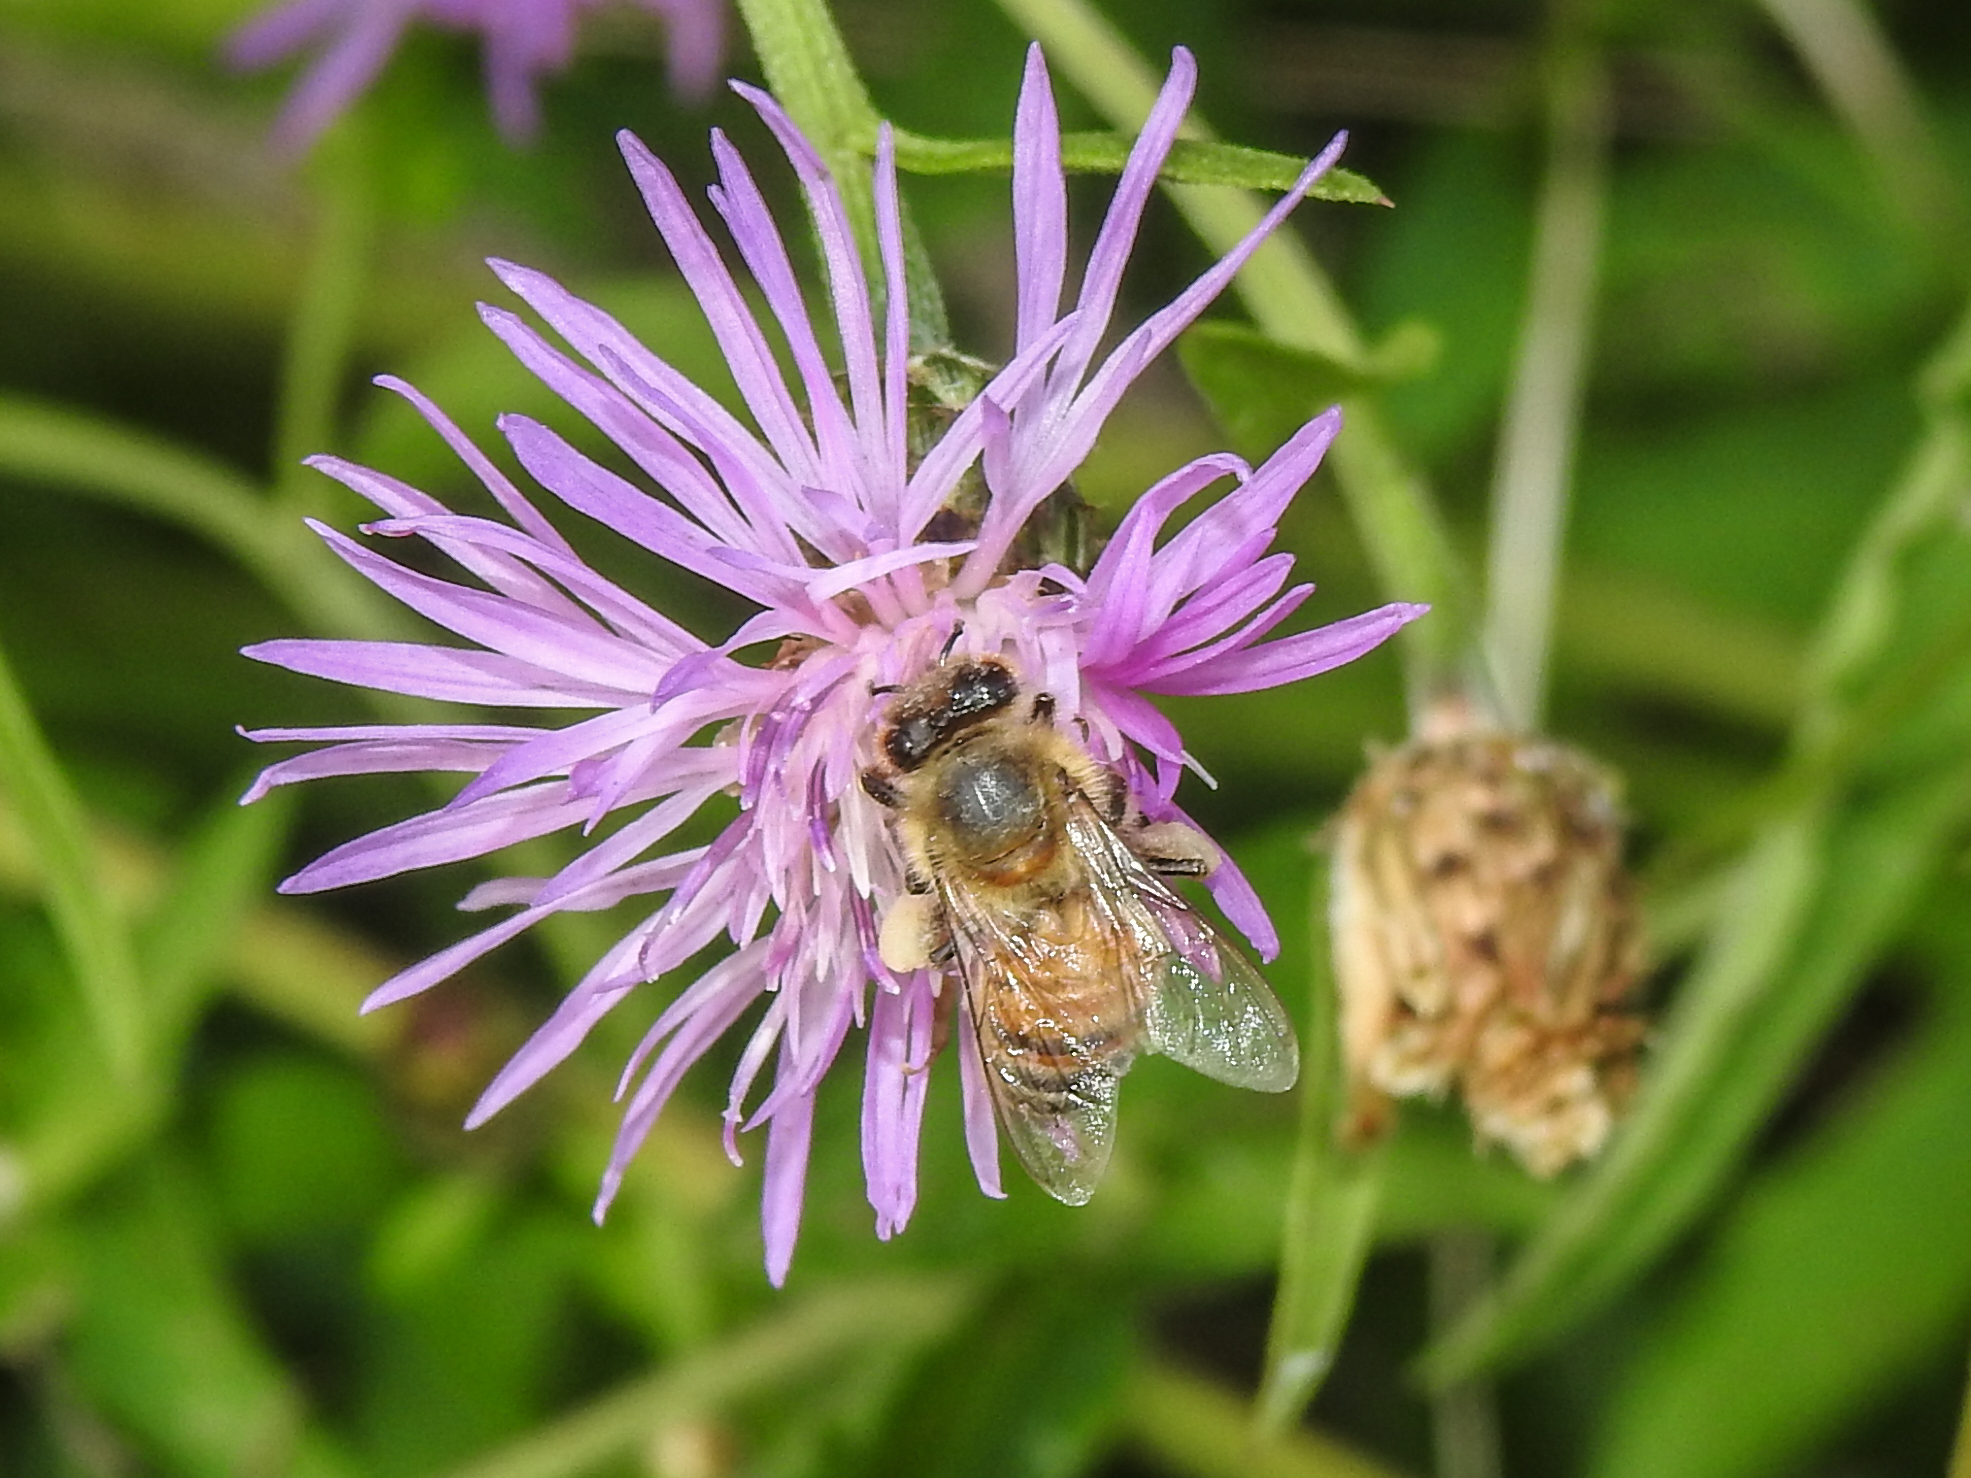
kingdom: Animalia
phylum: Arthropoda
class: Insecta
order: Hymenoptera
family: Apidae
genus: Apis
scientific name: Apis mellifera
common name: Honey bee
